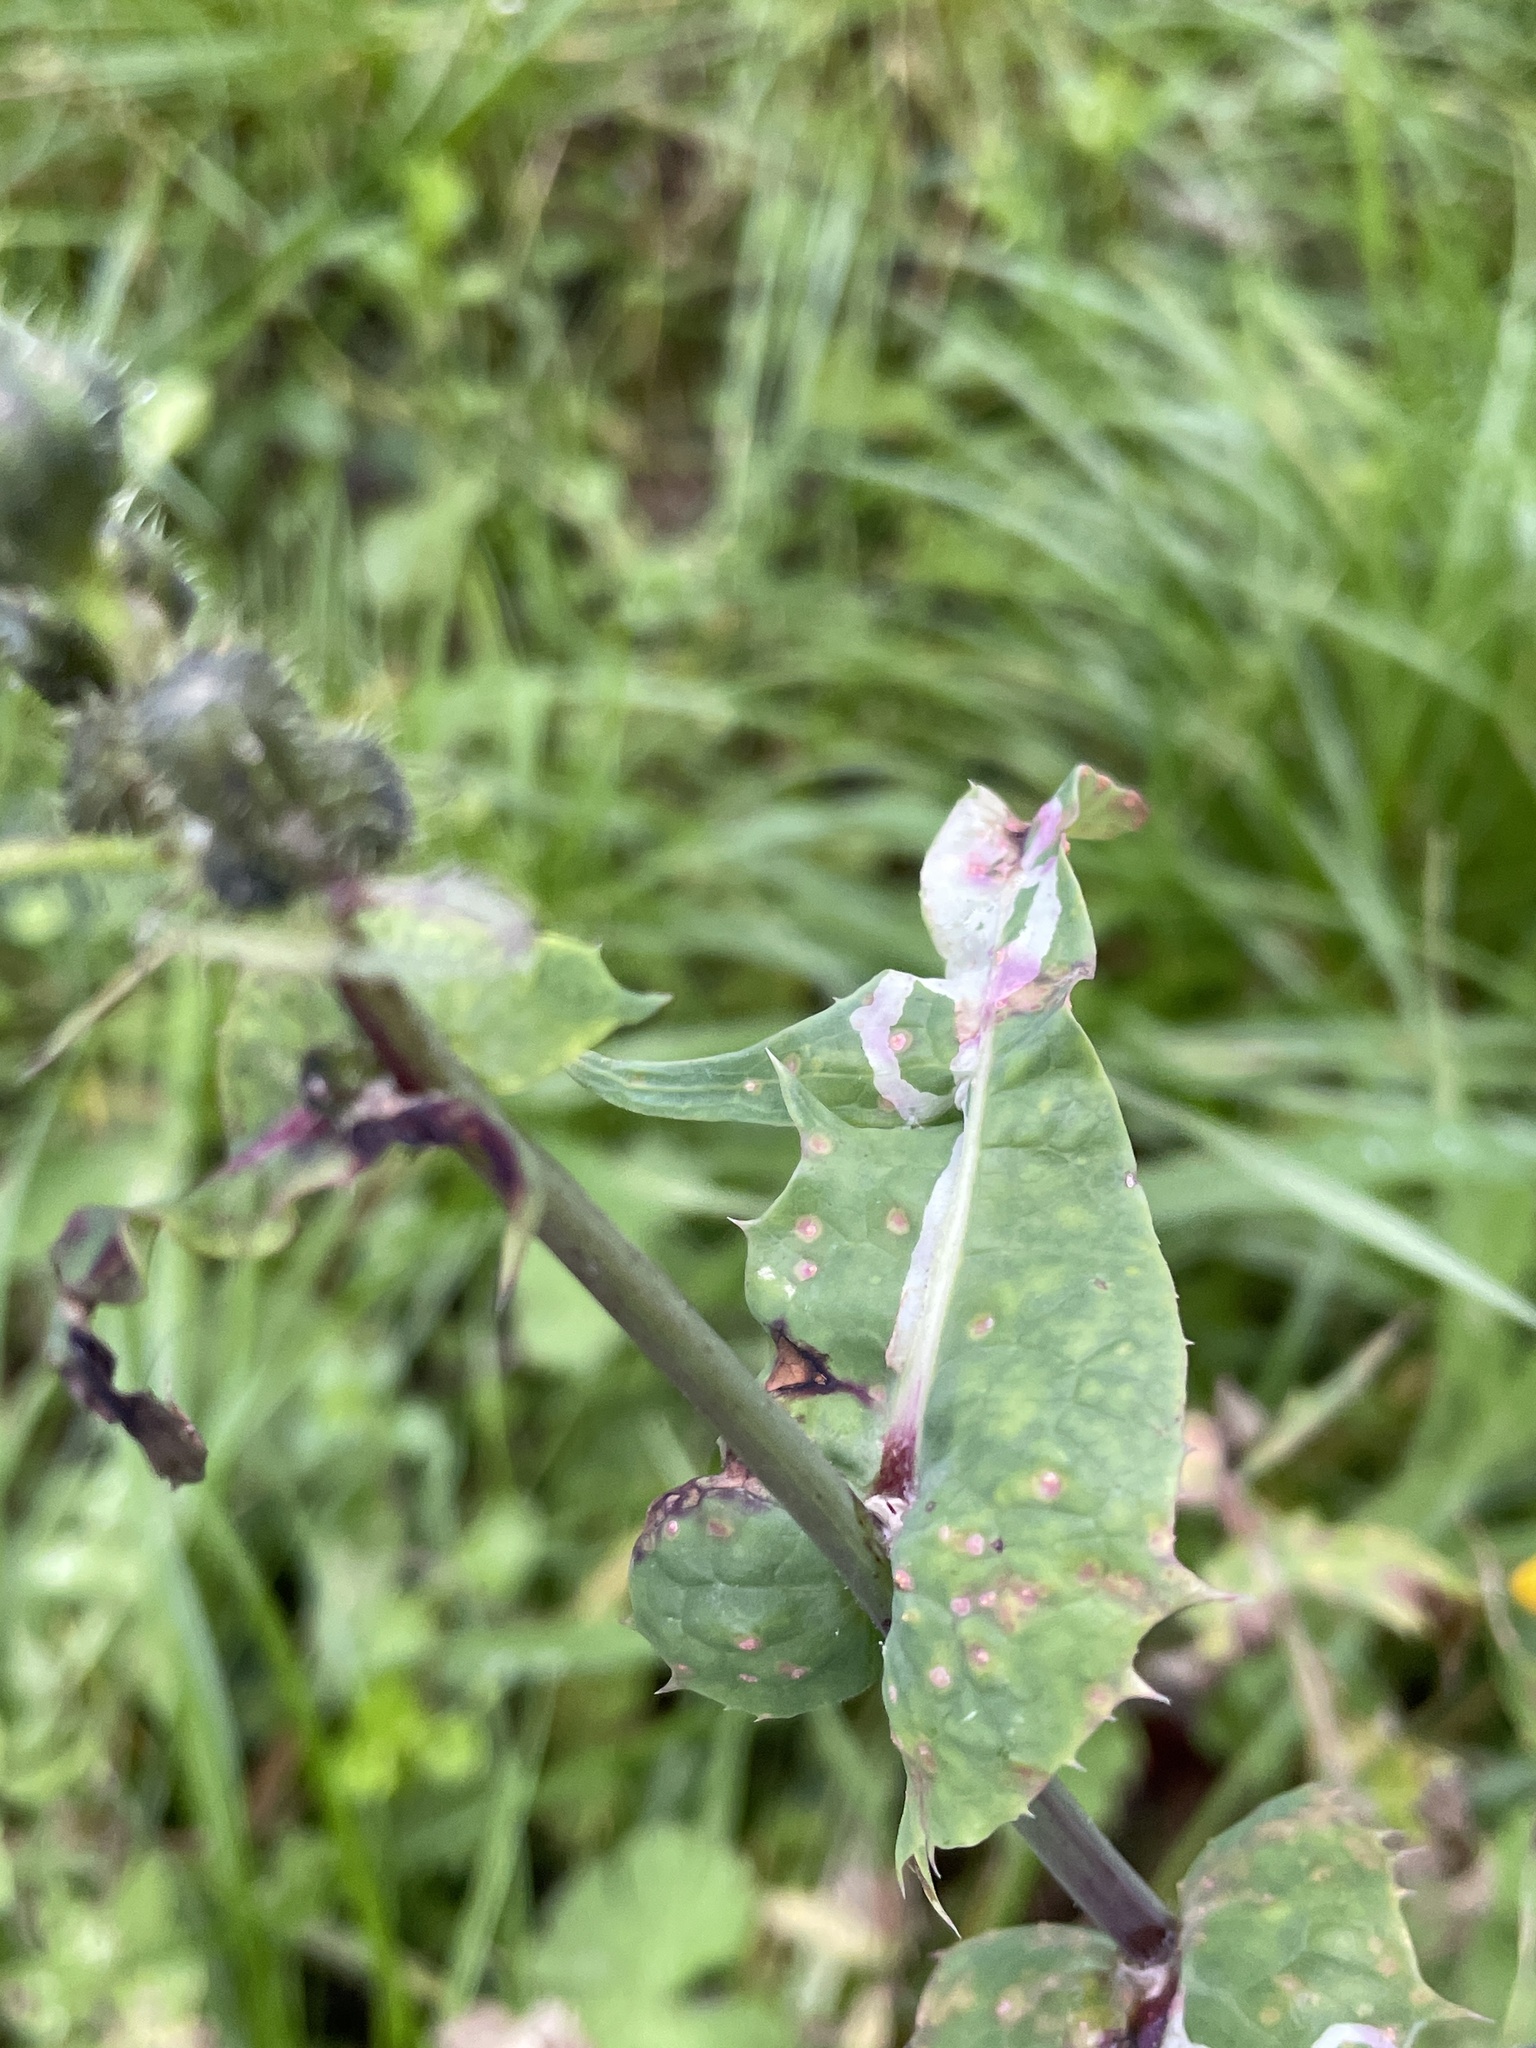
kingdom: Plantae
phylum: Tracheophyta
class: Magnoliopsida
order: Asterales
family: Asteraceae
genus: Sonchus
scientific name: Sonchus oleraceus
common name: Common sowthistle
